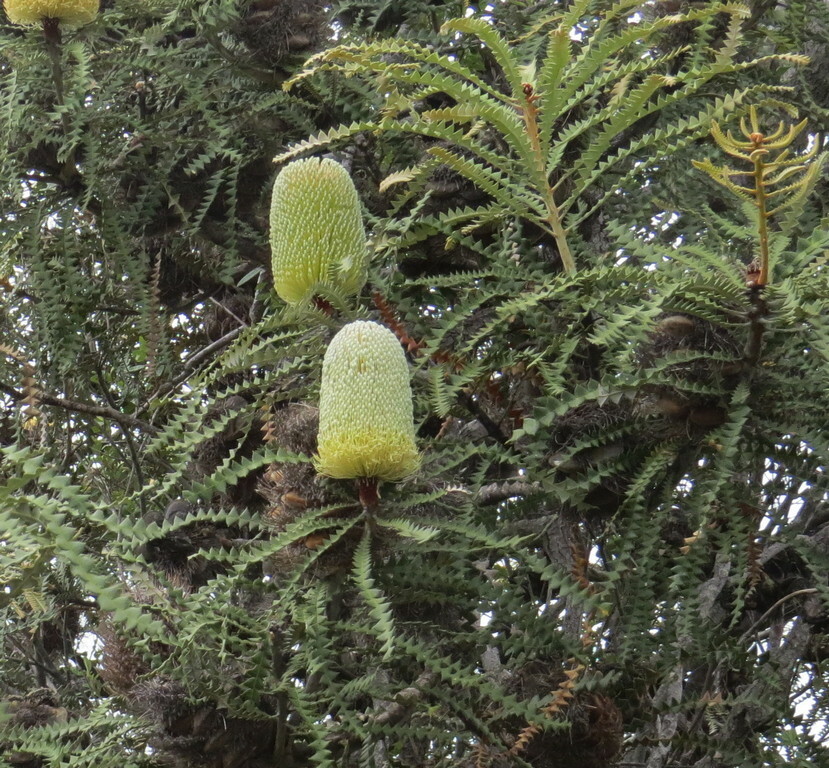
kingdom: Plantae
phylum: Tracheophyta
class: Magnoliopsida
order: Proteales
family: Proteaceae
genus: Banksia
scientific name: Banksia speciosa
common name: Showy banksia
